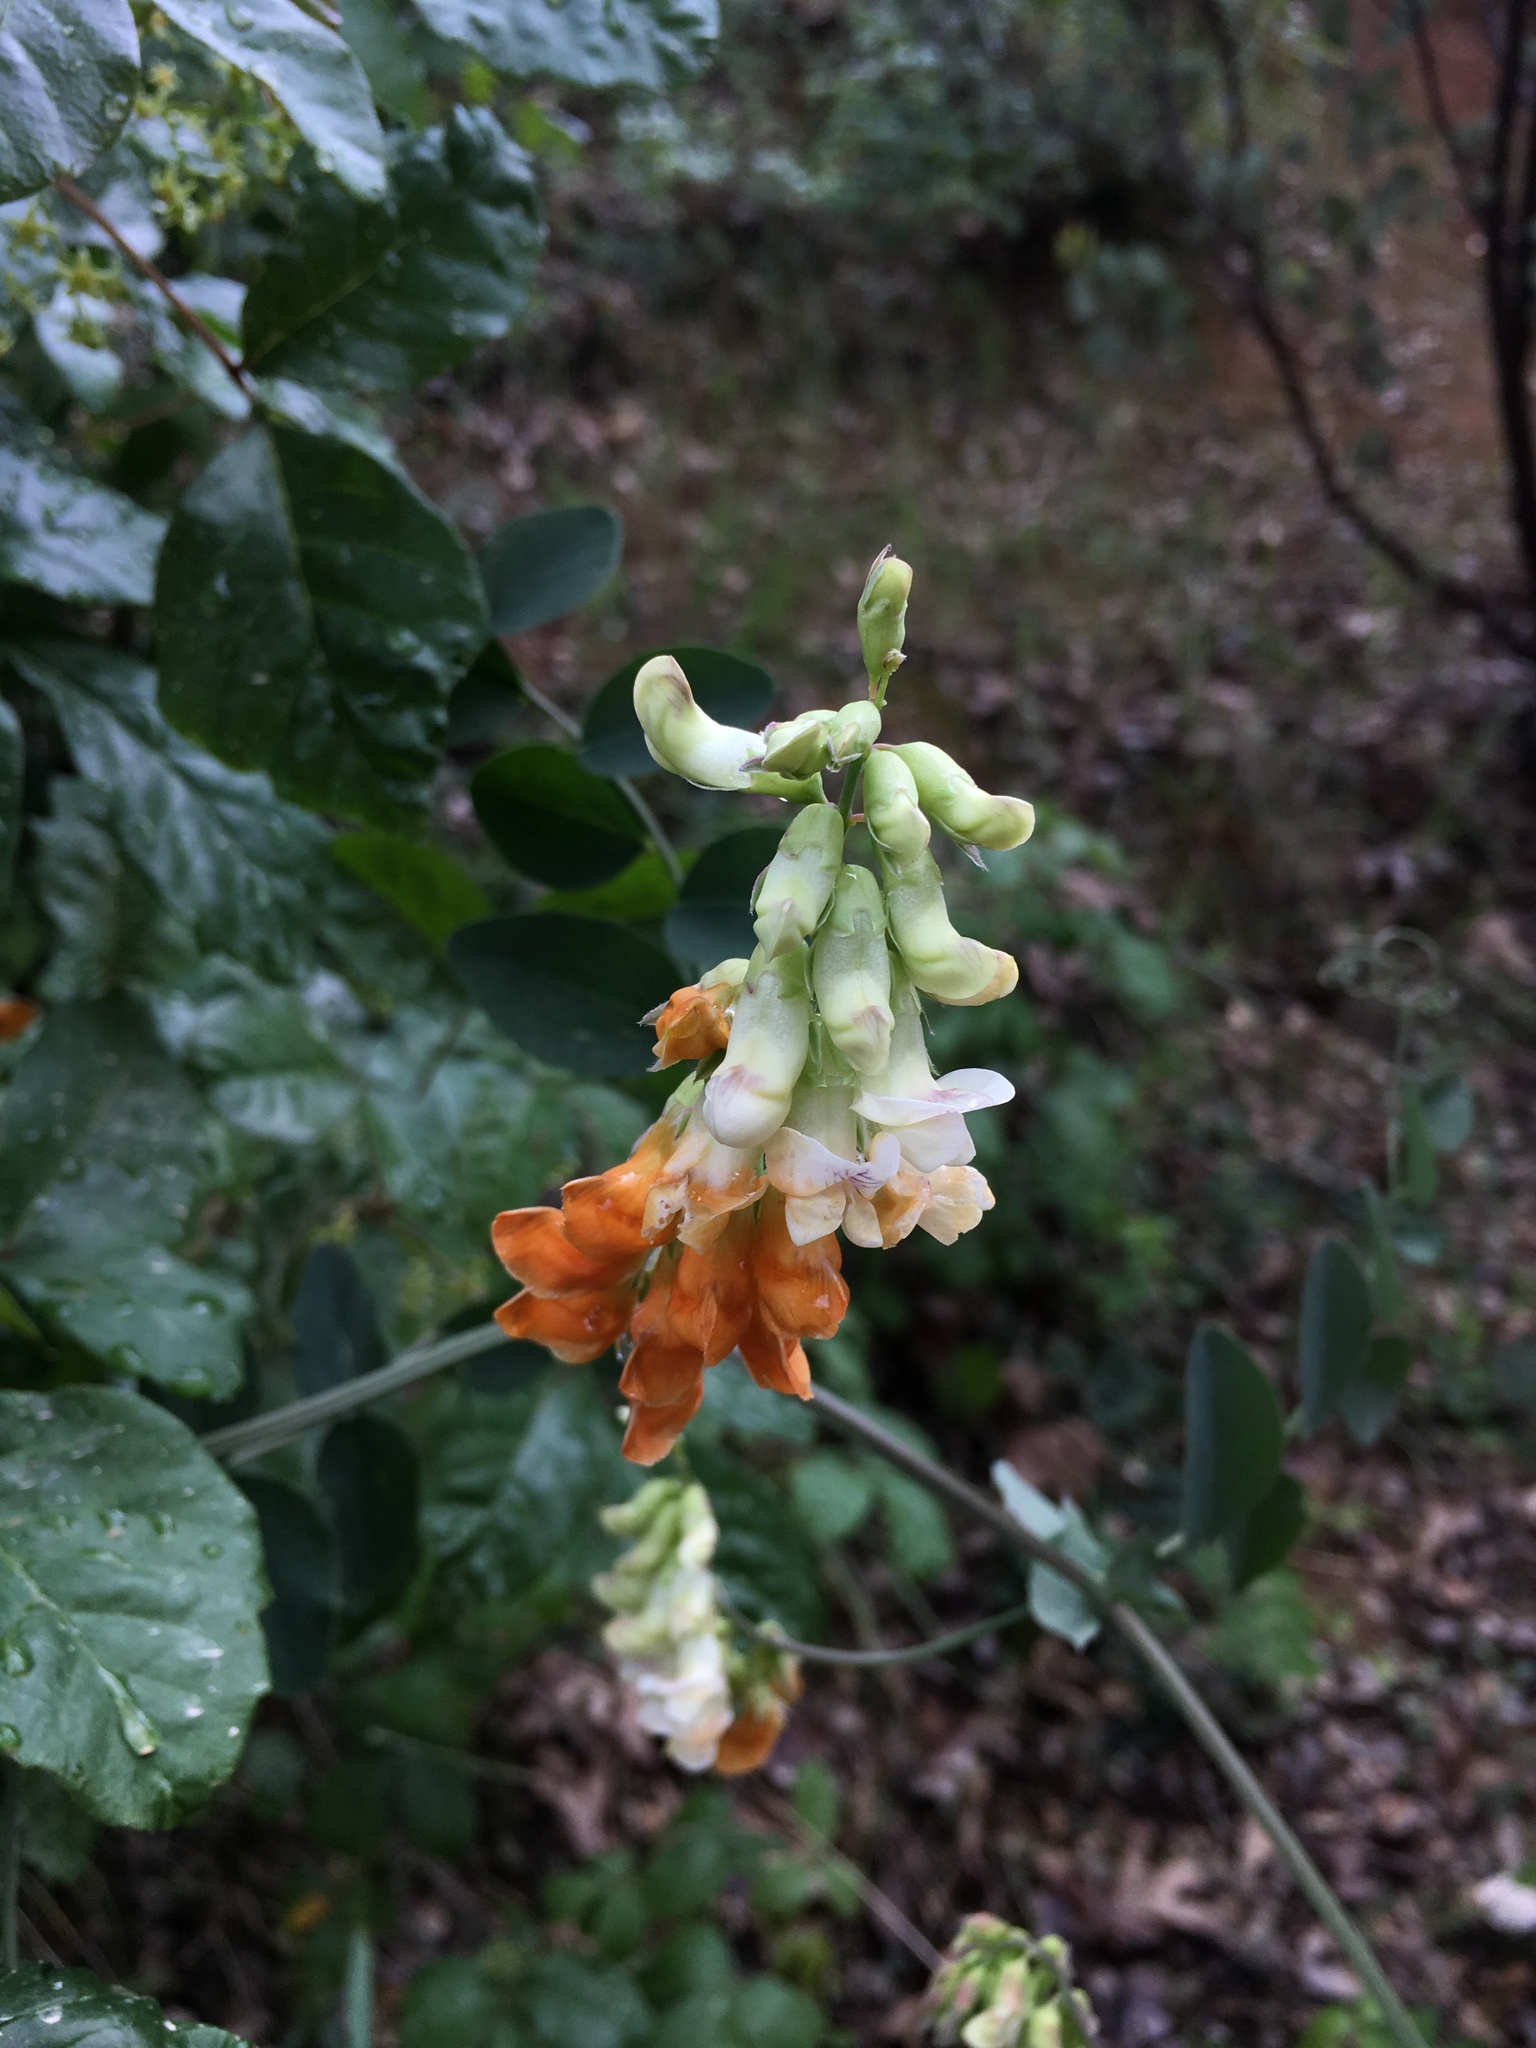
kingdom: Plantae
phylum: Tracheophyta
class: Magnoliopsida
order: Fabales
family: Fabaceae
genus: Lathyrus
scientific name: Lathyrus sulphureus
